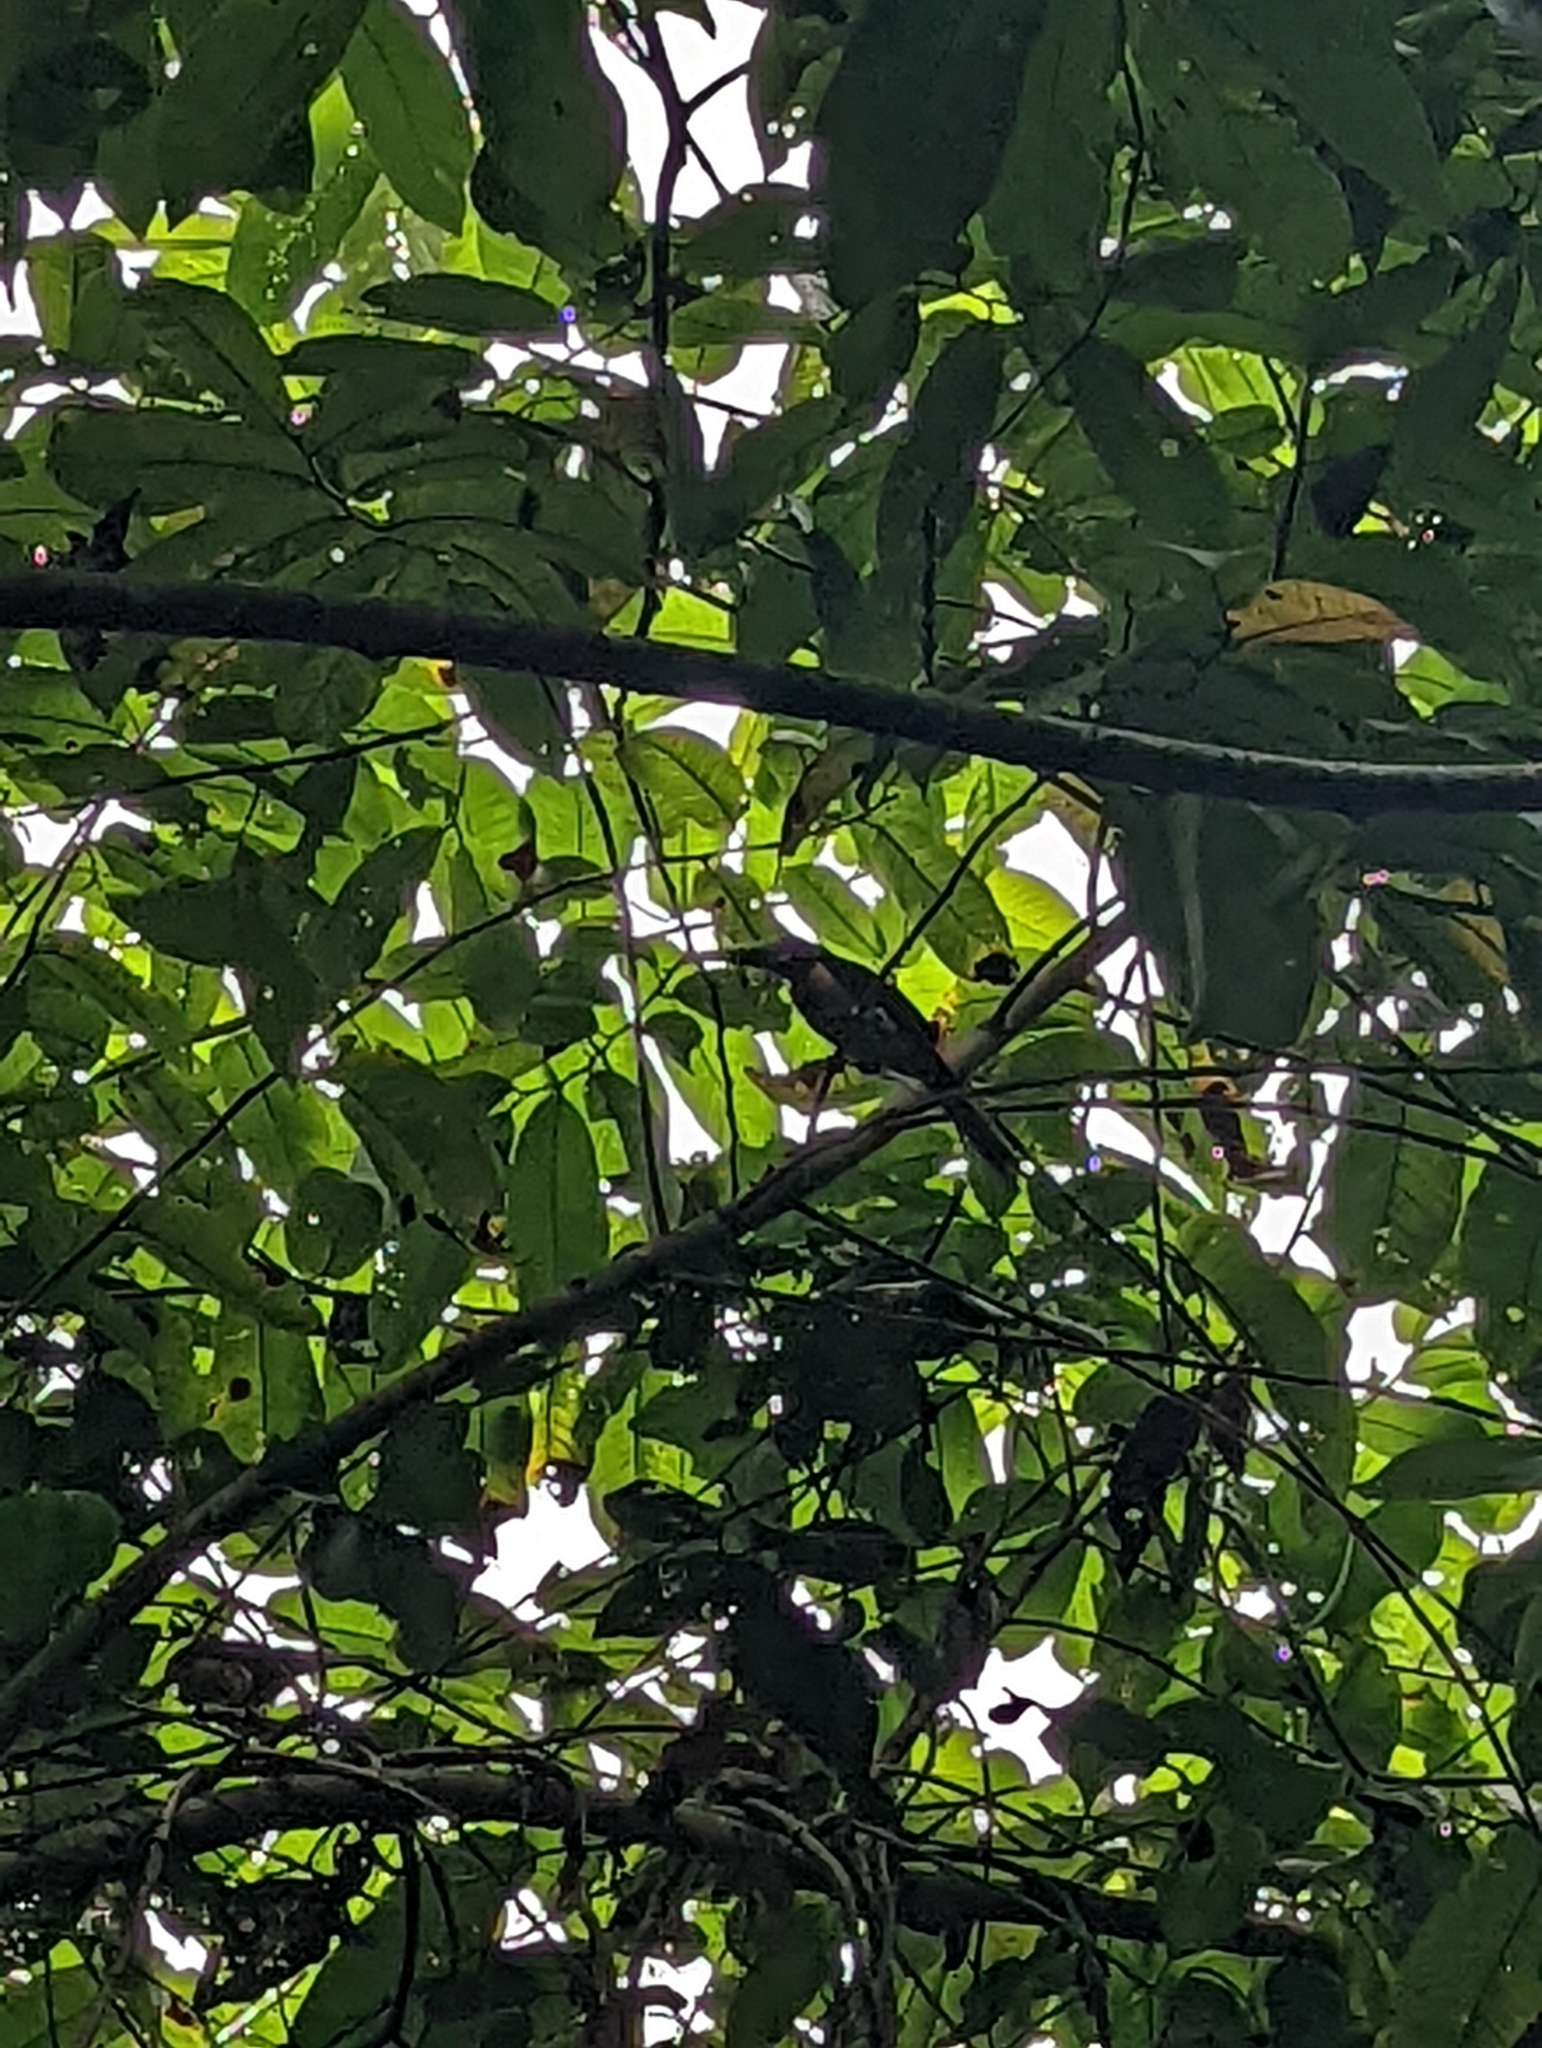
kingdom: Animalia
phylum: Chordata
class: Aves
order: Piciformes
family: Ramphastidae
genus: Pteroglossus
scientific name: Pteroglossus torquatus
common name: Collared aracari
